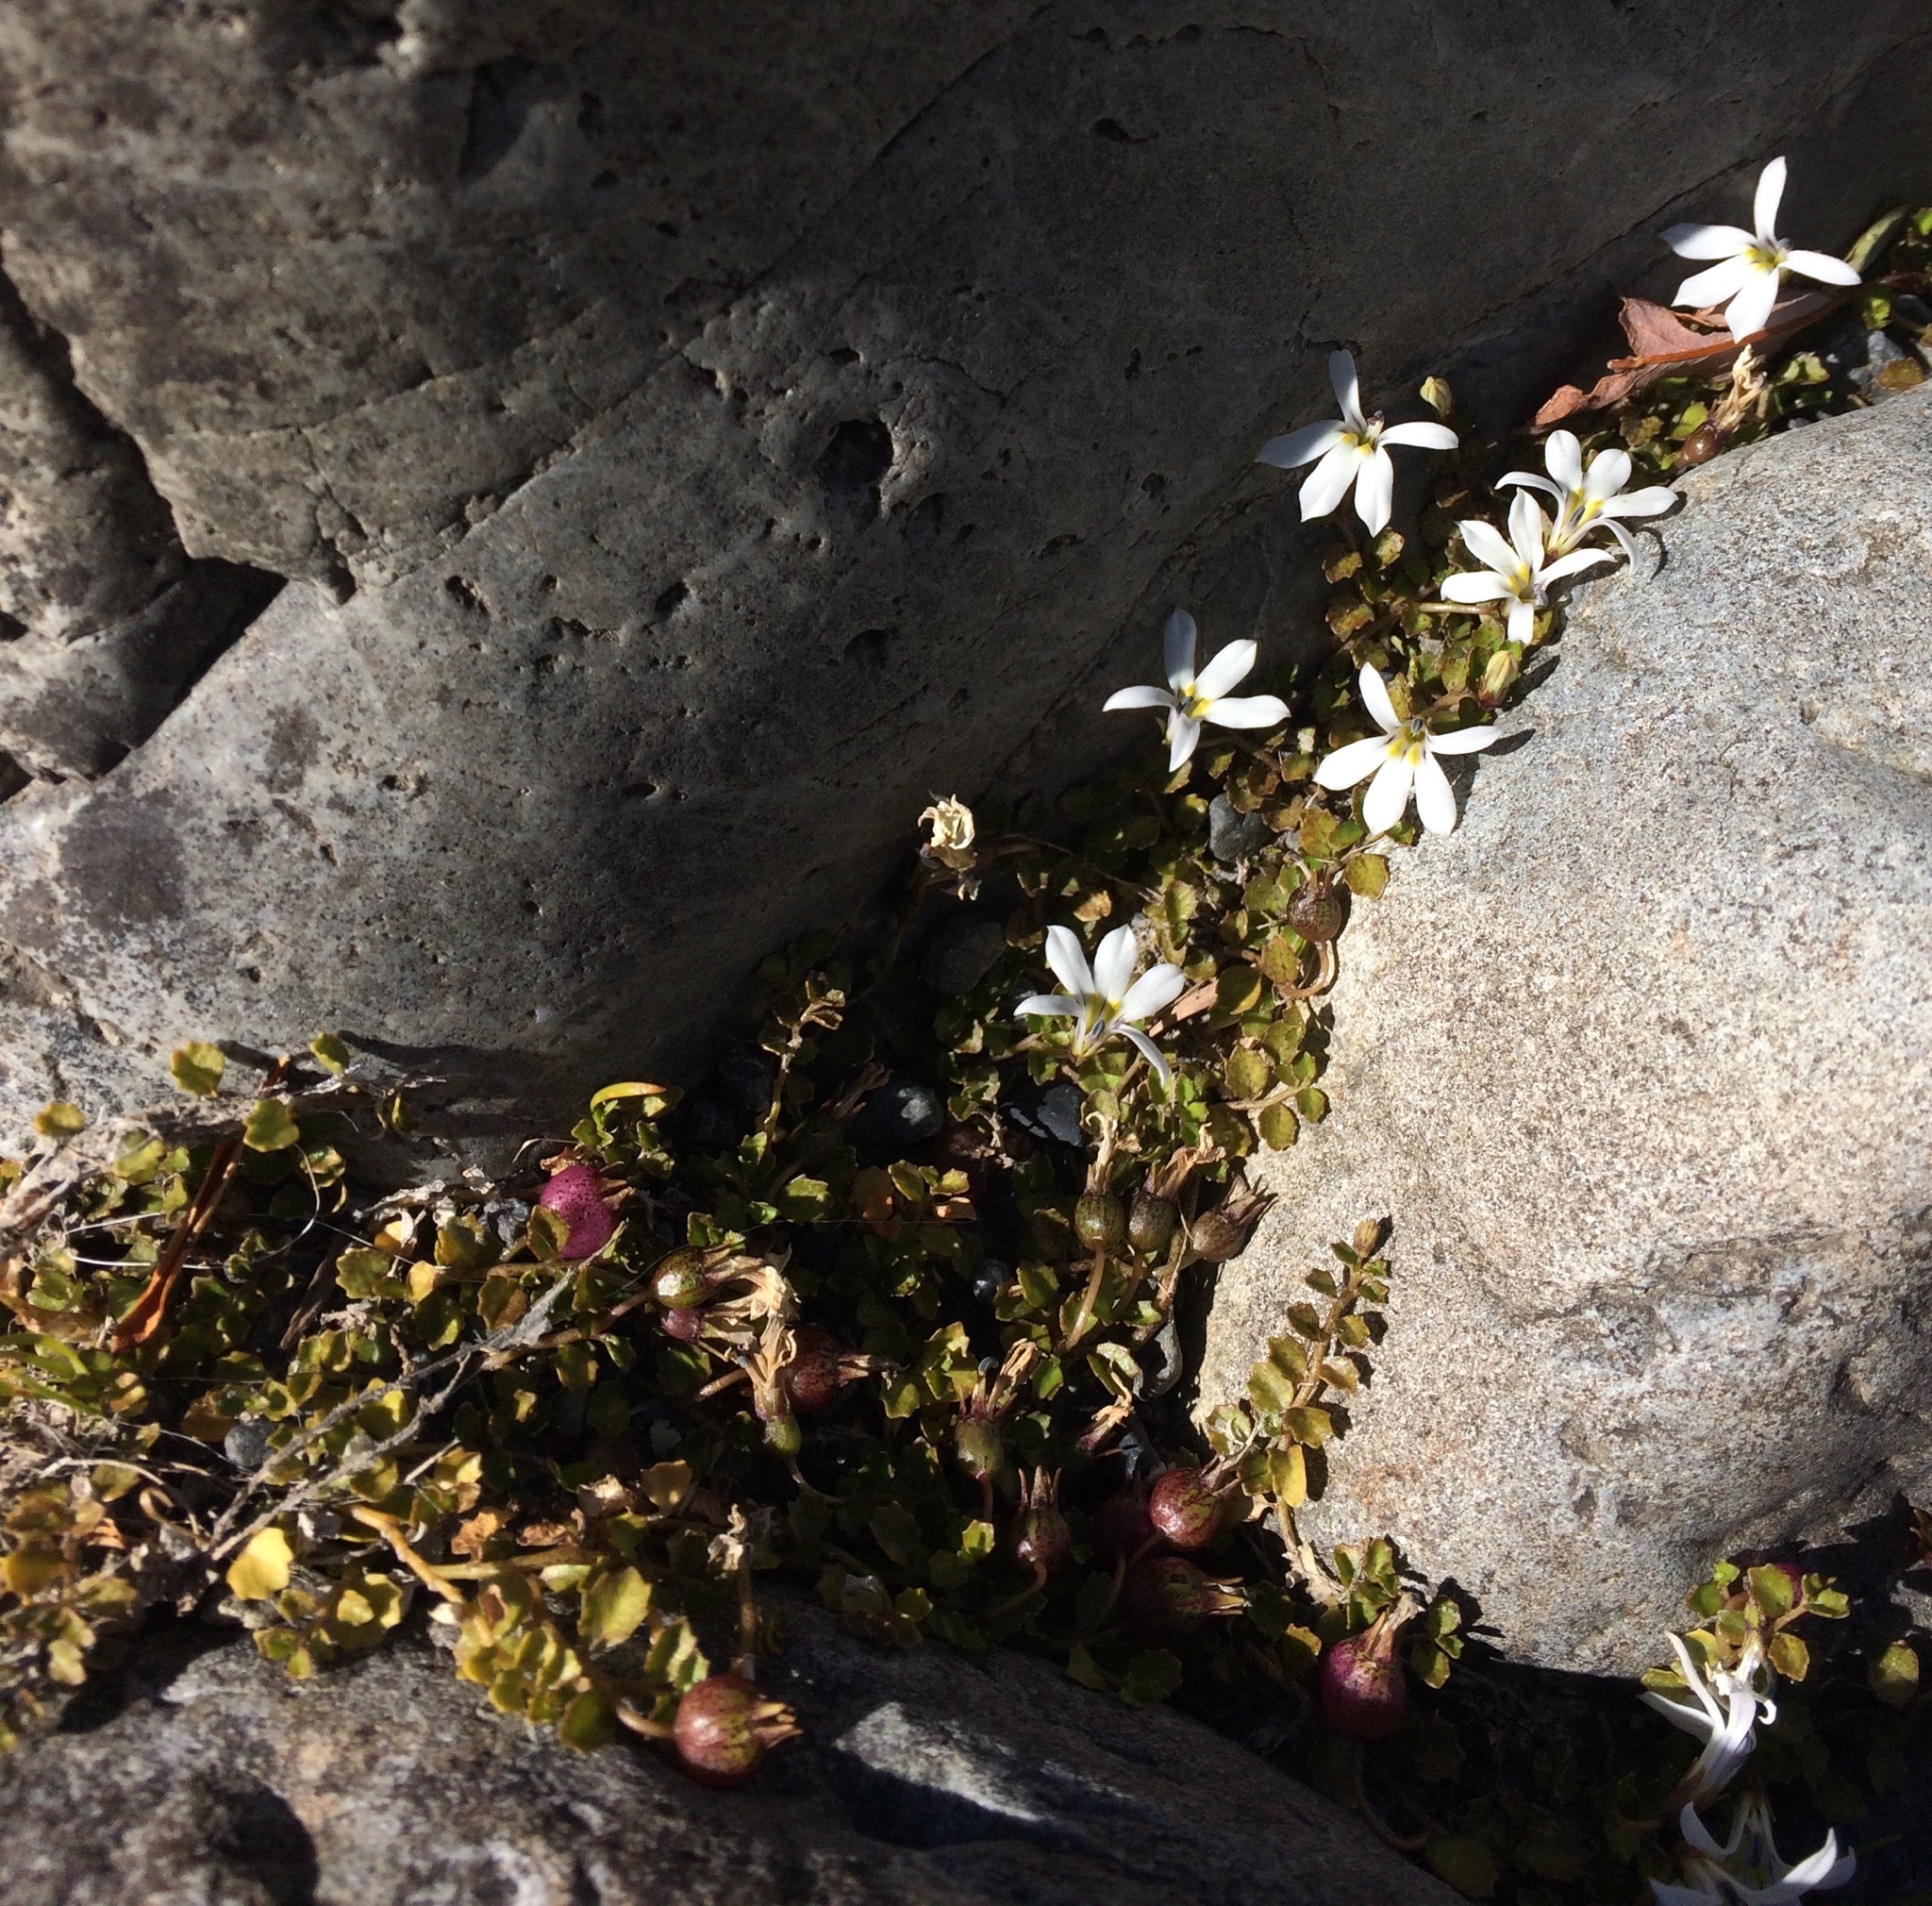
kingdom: Plantae
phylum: Tracheophyta
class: Magnoliopsida
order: Asterales
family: Campanulaceae
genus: Lobelia
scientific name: Lobelia angulata
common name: Lawn lobelia
